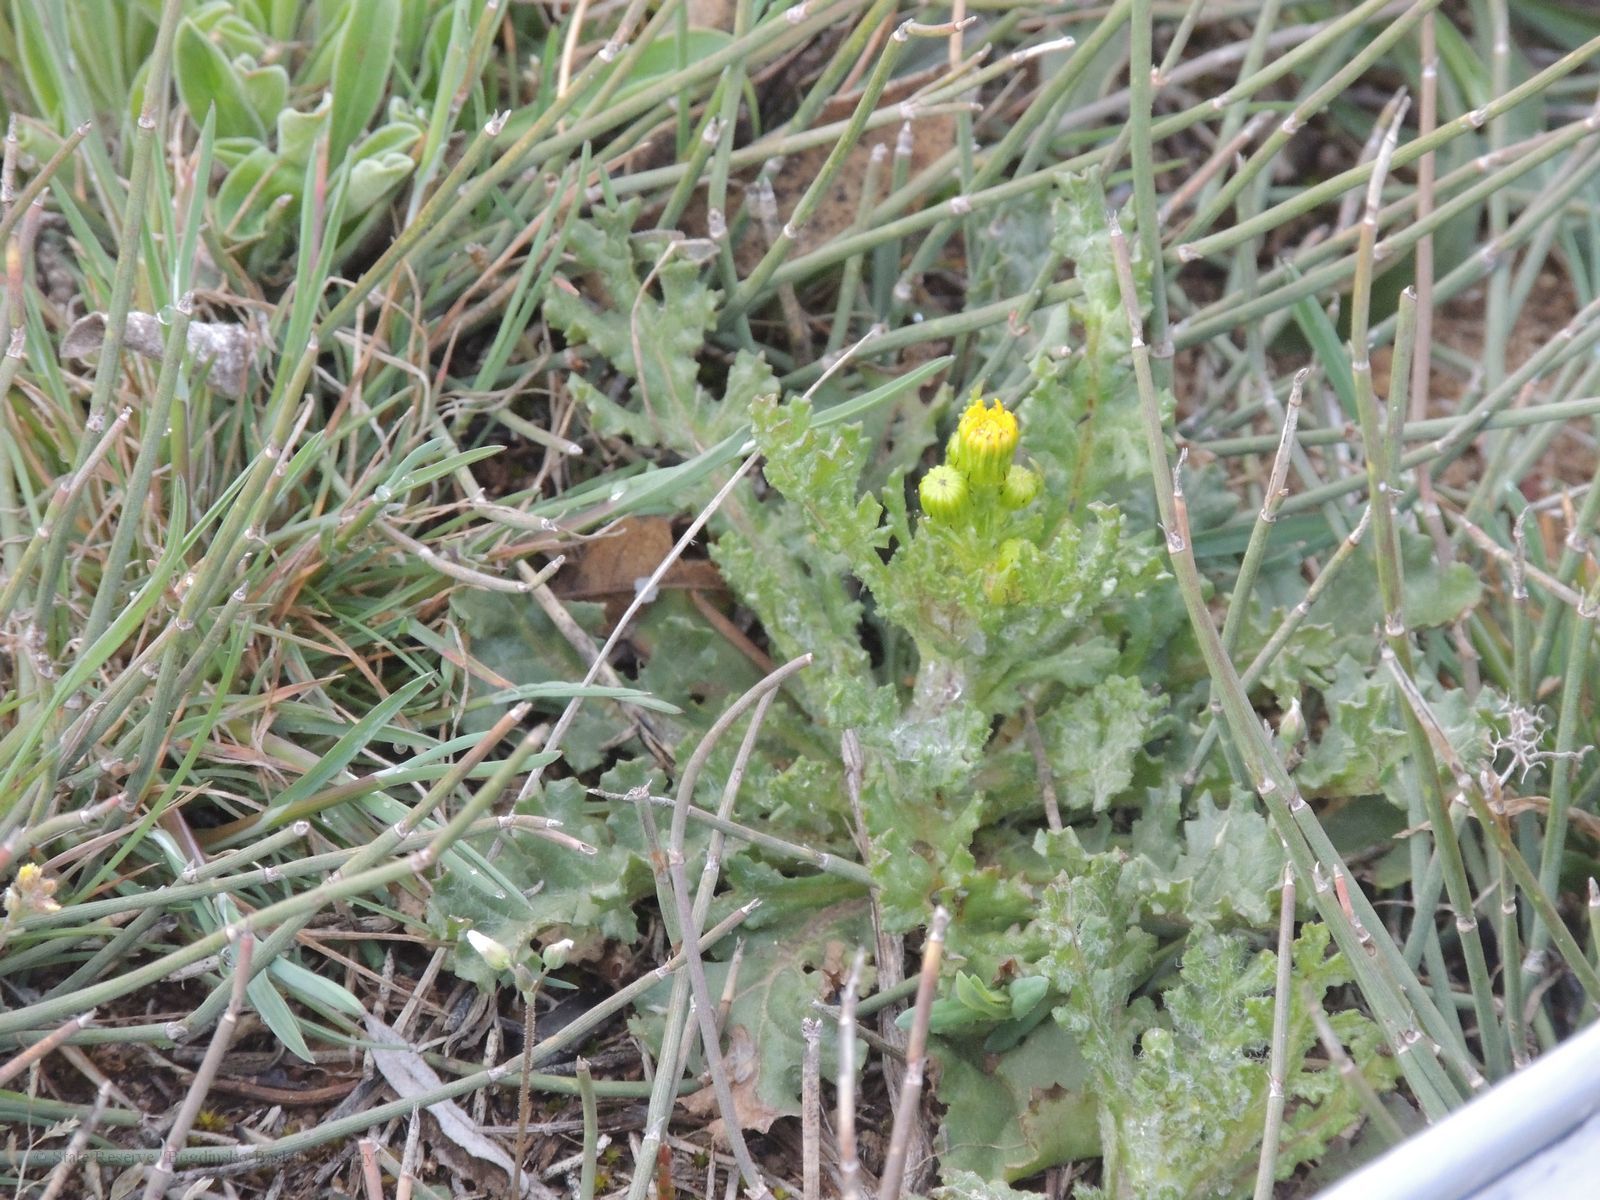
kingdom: Plantae
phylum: Tracheophyta
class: Magnoliopsida
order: Asterales
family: Asteraceae
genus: Senecio
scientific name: Senecio vernalis
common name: Eastern groundsel
